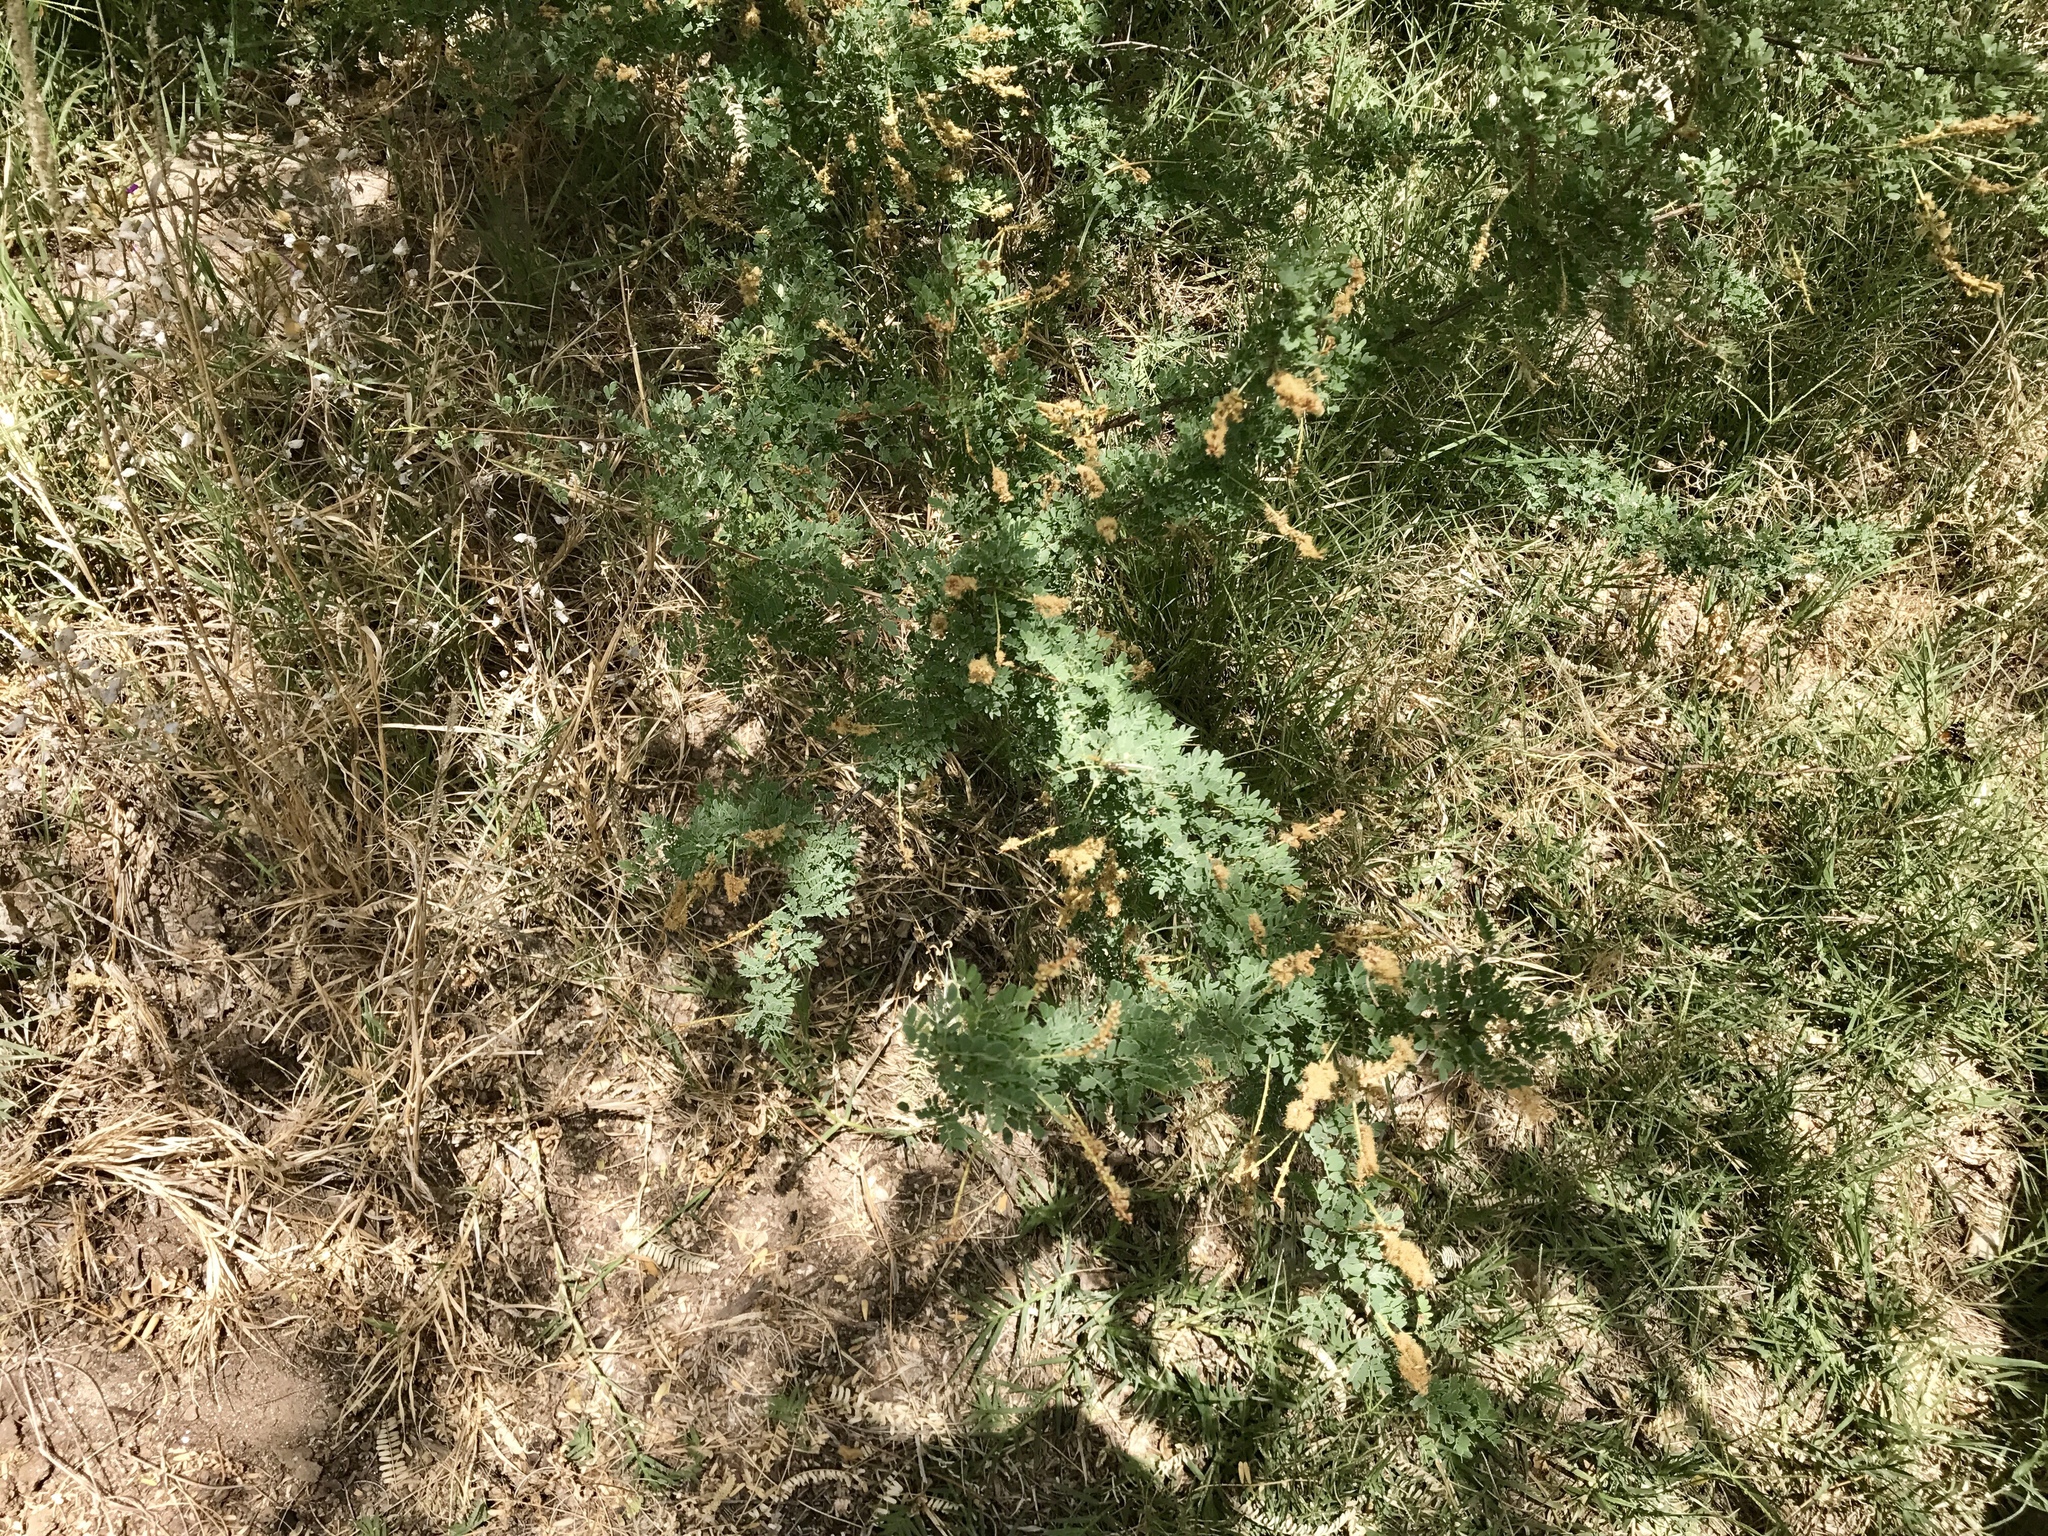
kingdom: Plantae
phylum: Tracheophyta
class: Magnoliopsida
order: Fabales
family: Fabaceae
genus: Senegalia
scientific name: Senegalia greggii
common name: Texas-mimosa
